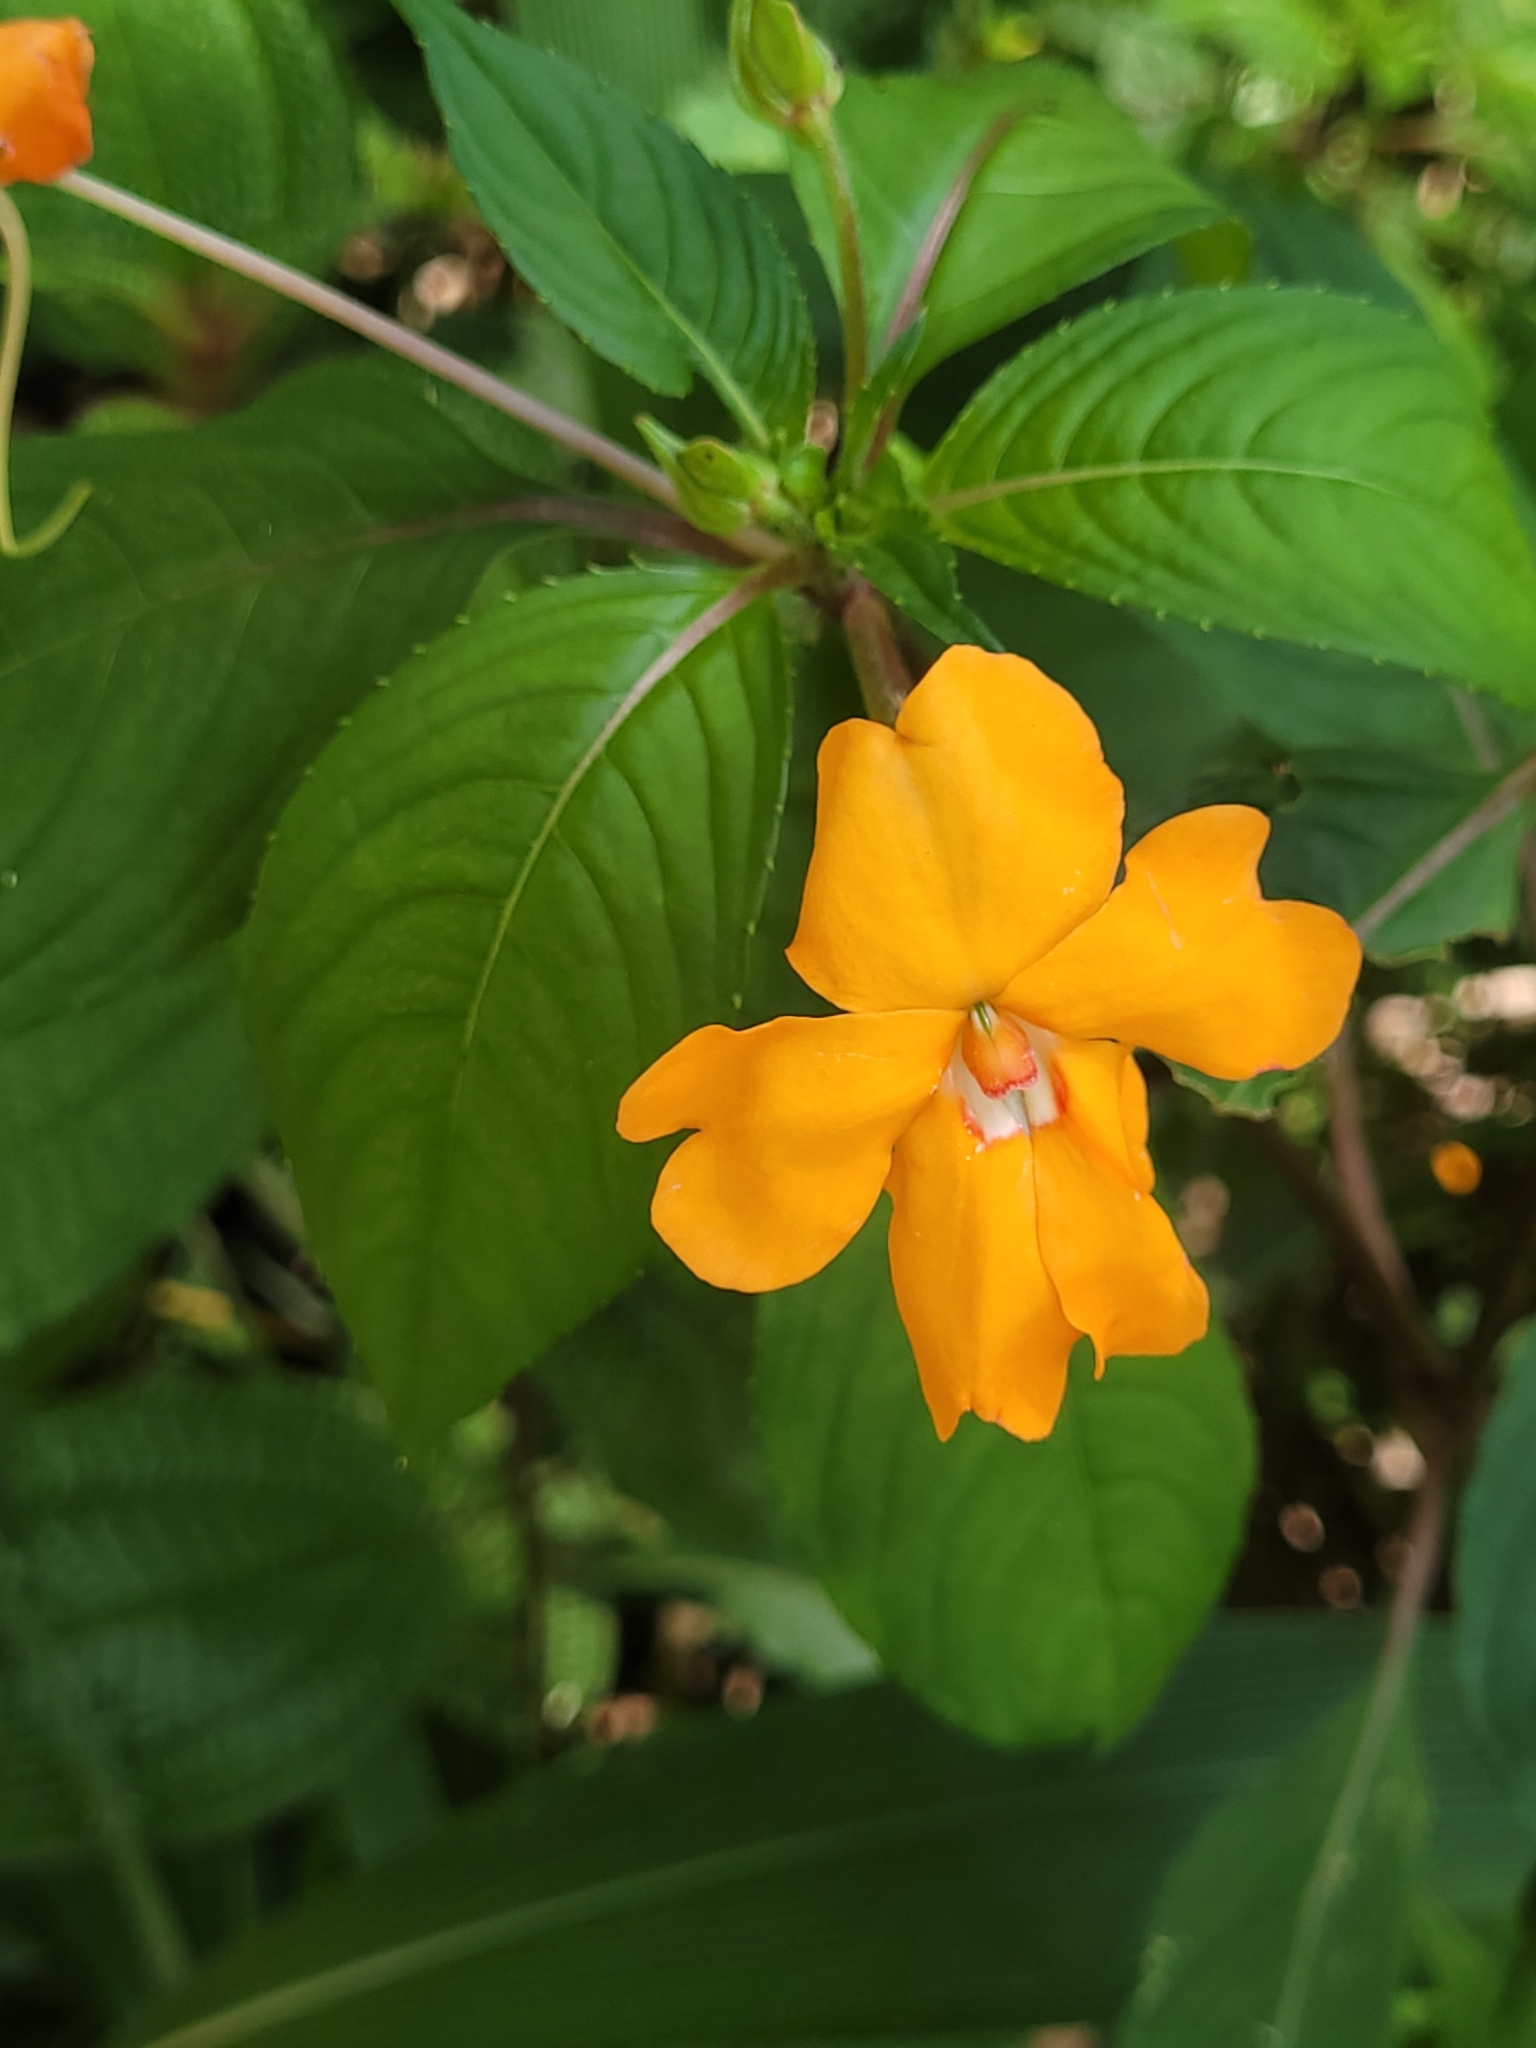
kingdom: Plantae
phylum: Tracheophyta
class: Magnoliopsida
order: Ericales
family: Balsaminaceae
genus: Impatiens
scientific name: Impatiens platypetala
